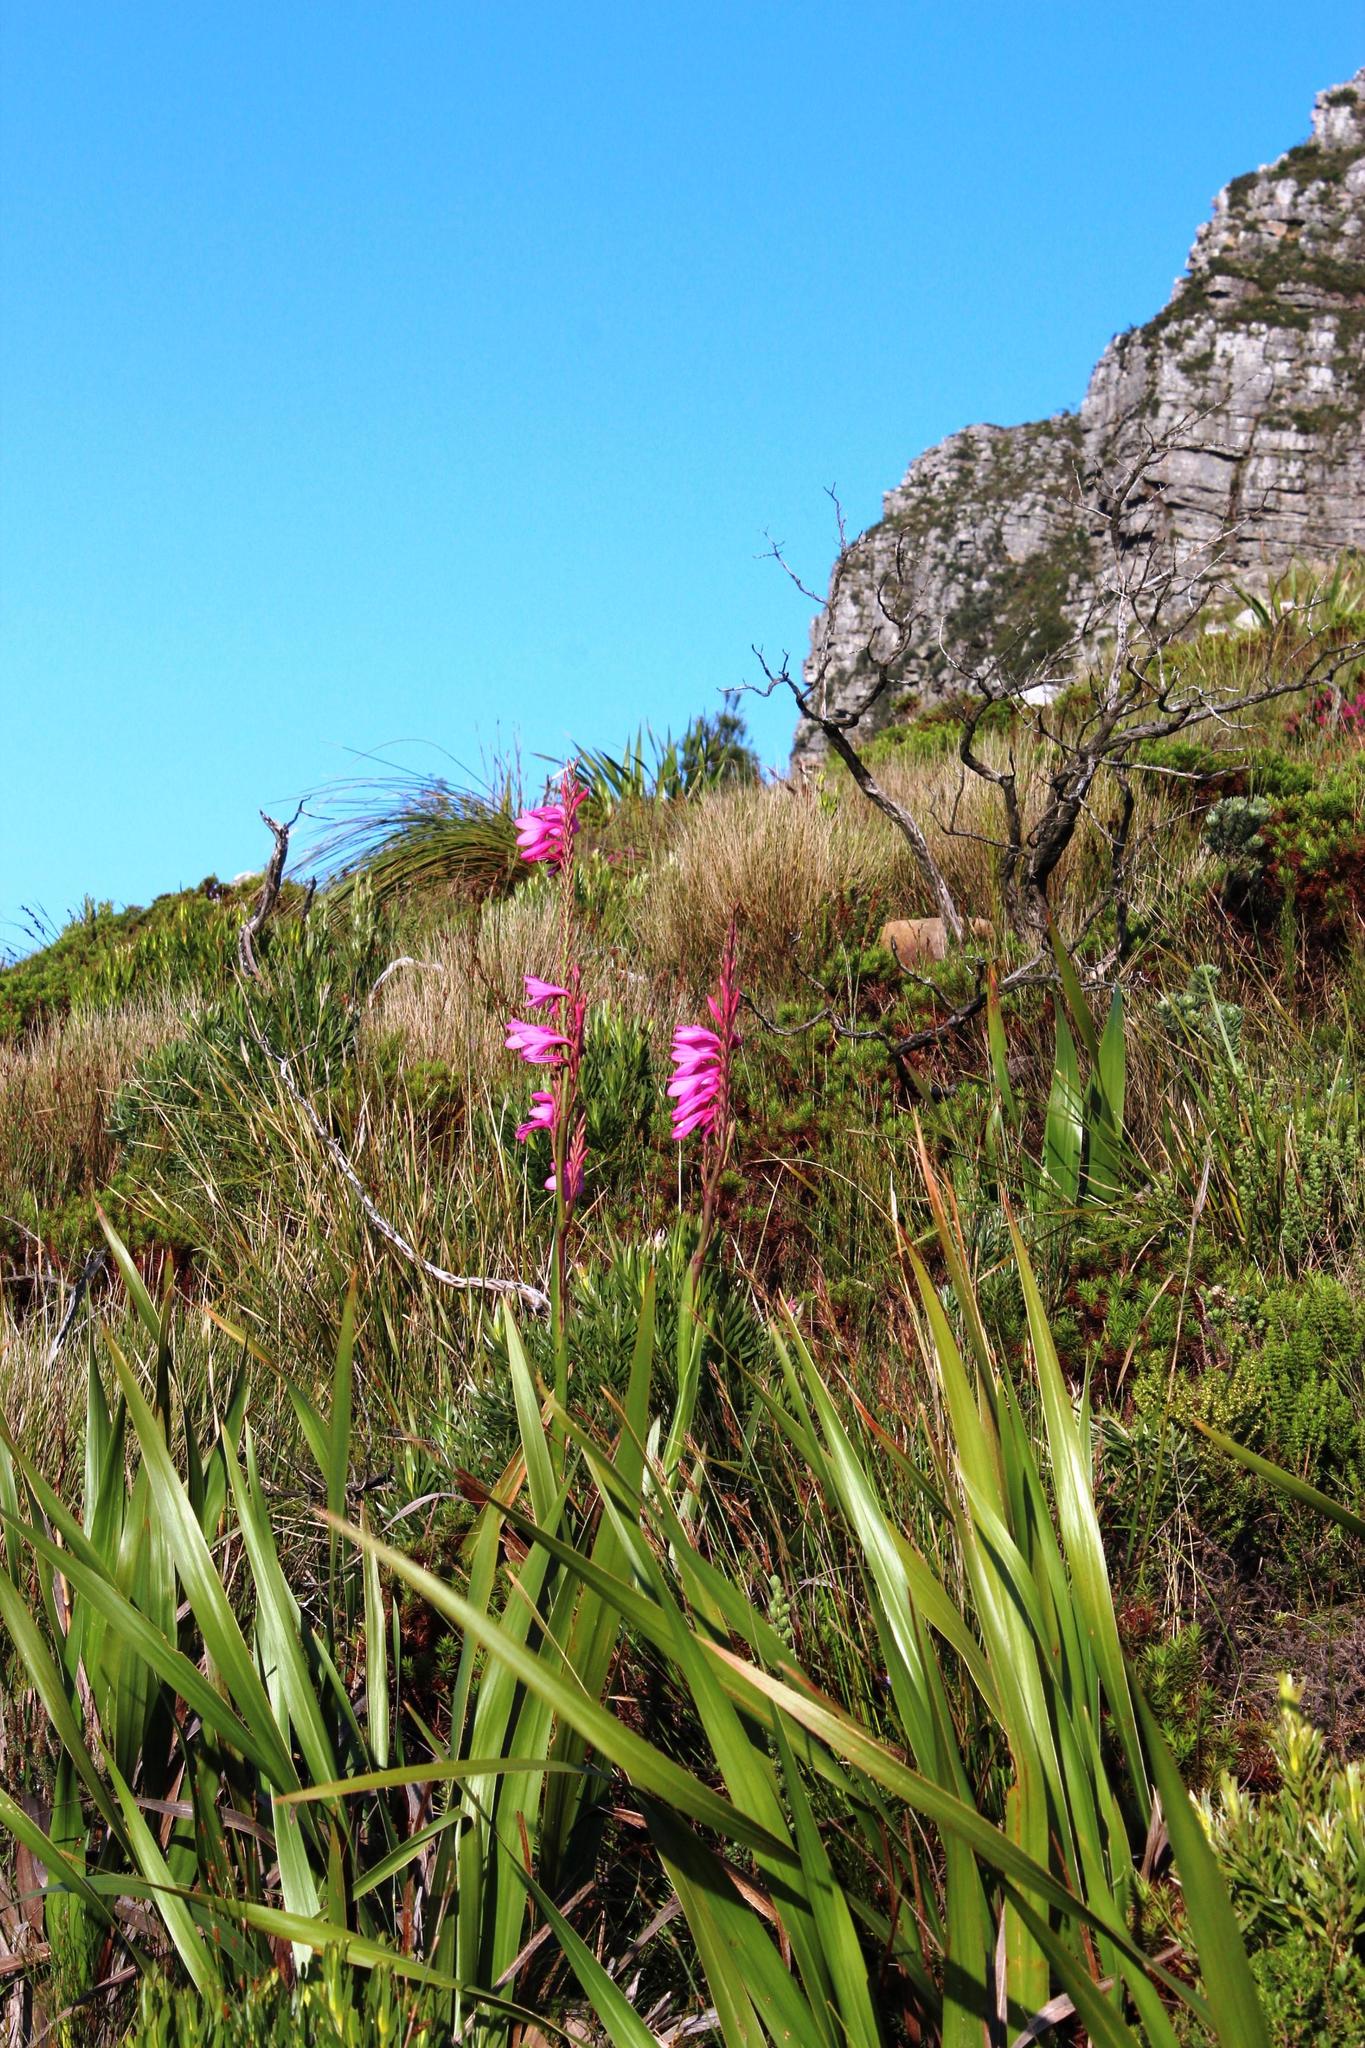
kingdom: Plantae
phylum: Tracheophyta
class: Liliopsida
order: Asparagales
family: Iridaceae
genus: Watsonia
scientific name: Watsonia borbonica
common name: Bugle-lily
